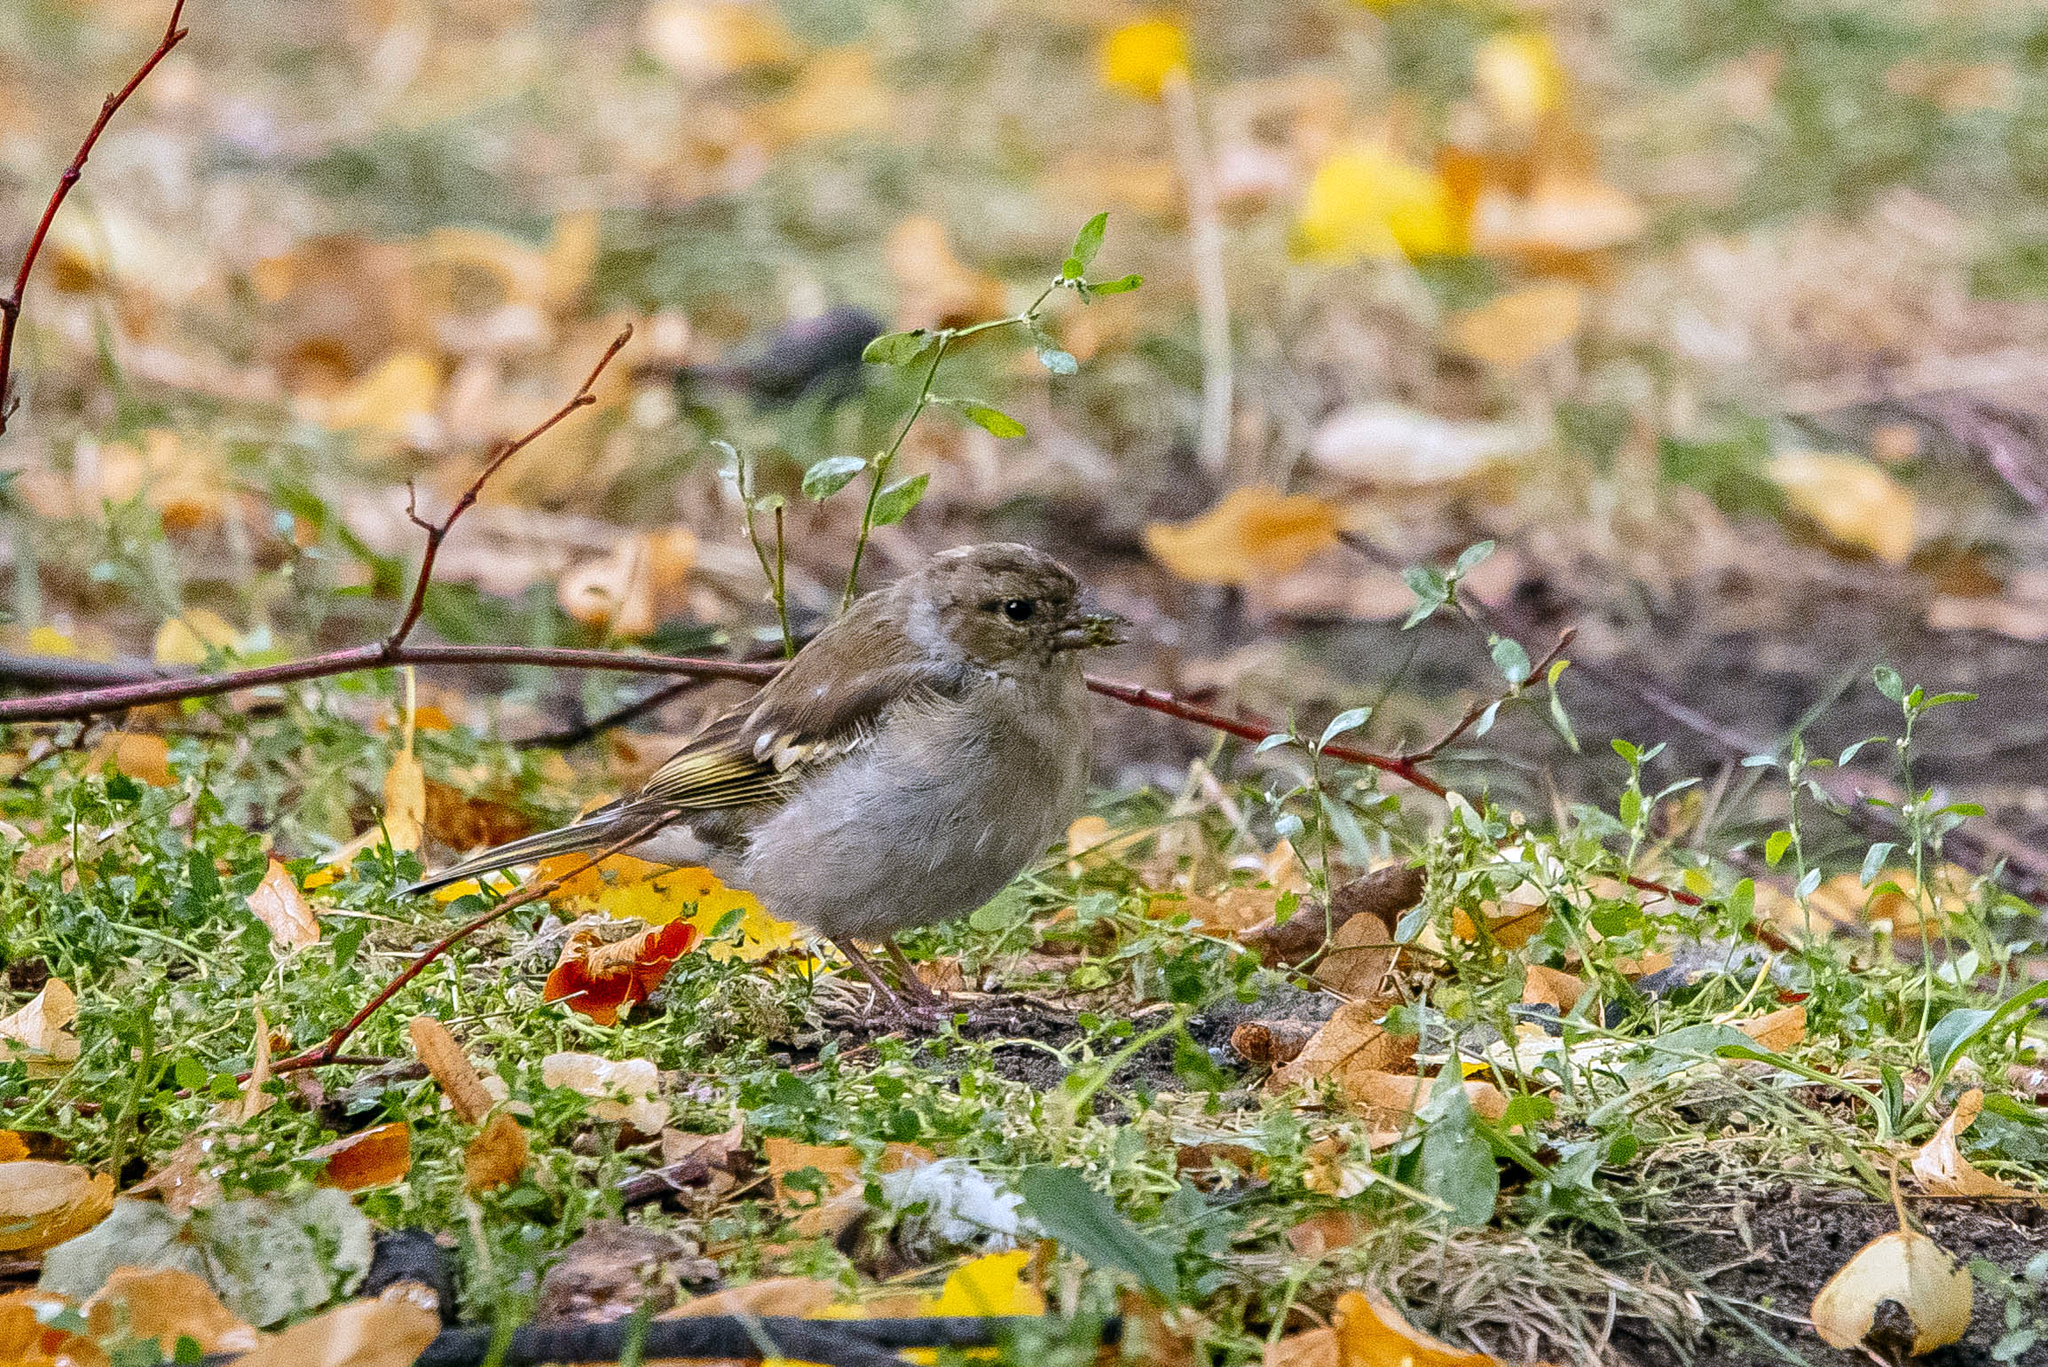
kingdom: Animalia
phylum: Chordata
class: Aves
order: Passeriformes
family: Fringillidae
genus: Fringilla
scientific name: Fringilla coelebs
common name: Common chaffinch
